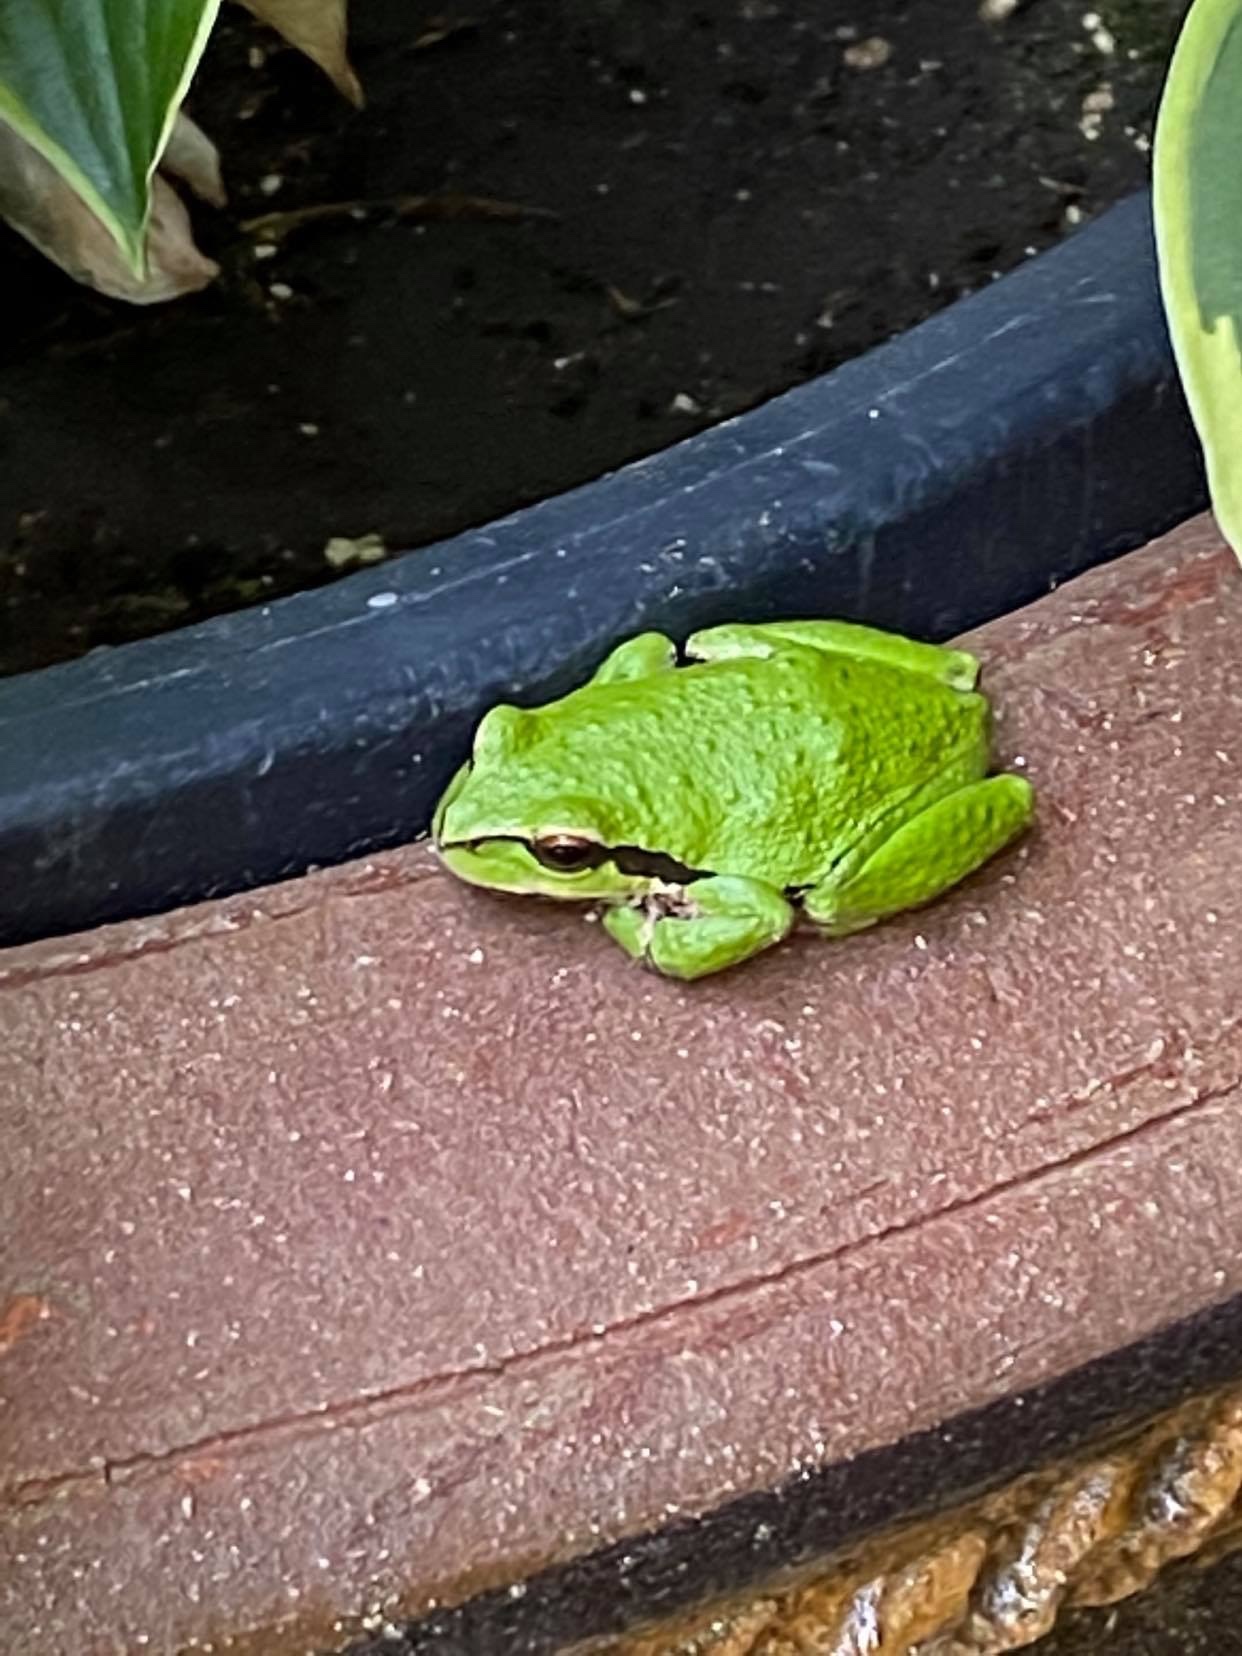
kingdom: Animalia
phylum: Chordata
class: Amphibia
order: Anura
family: Hylidae
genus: Pseudacris
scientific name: Pseudacris regilla
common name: Pacific chorus frog
